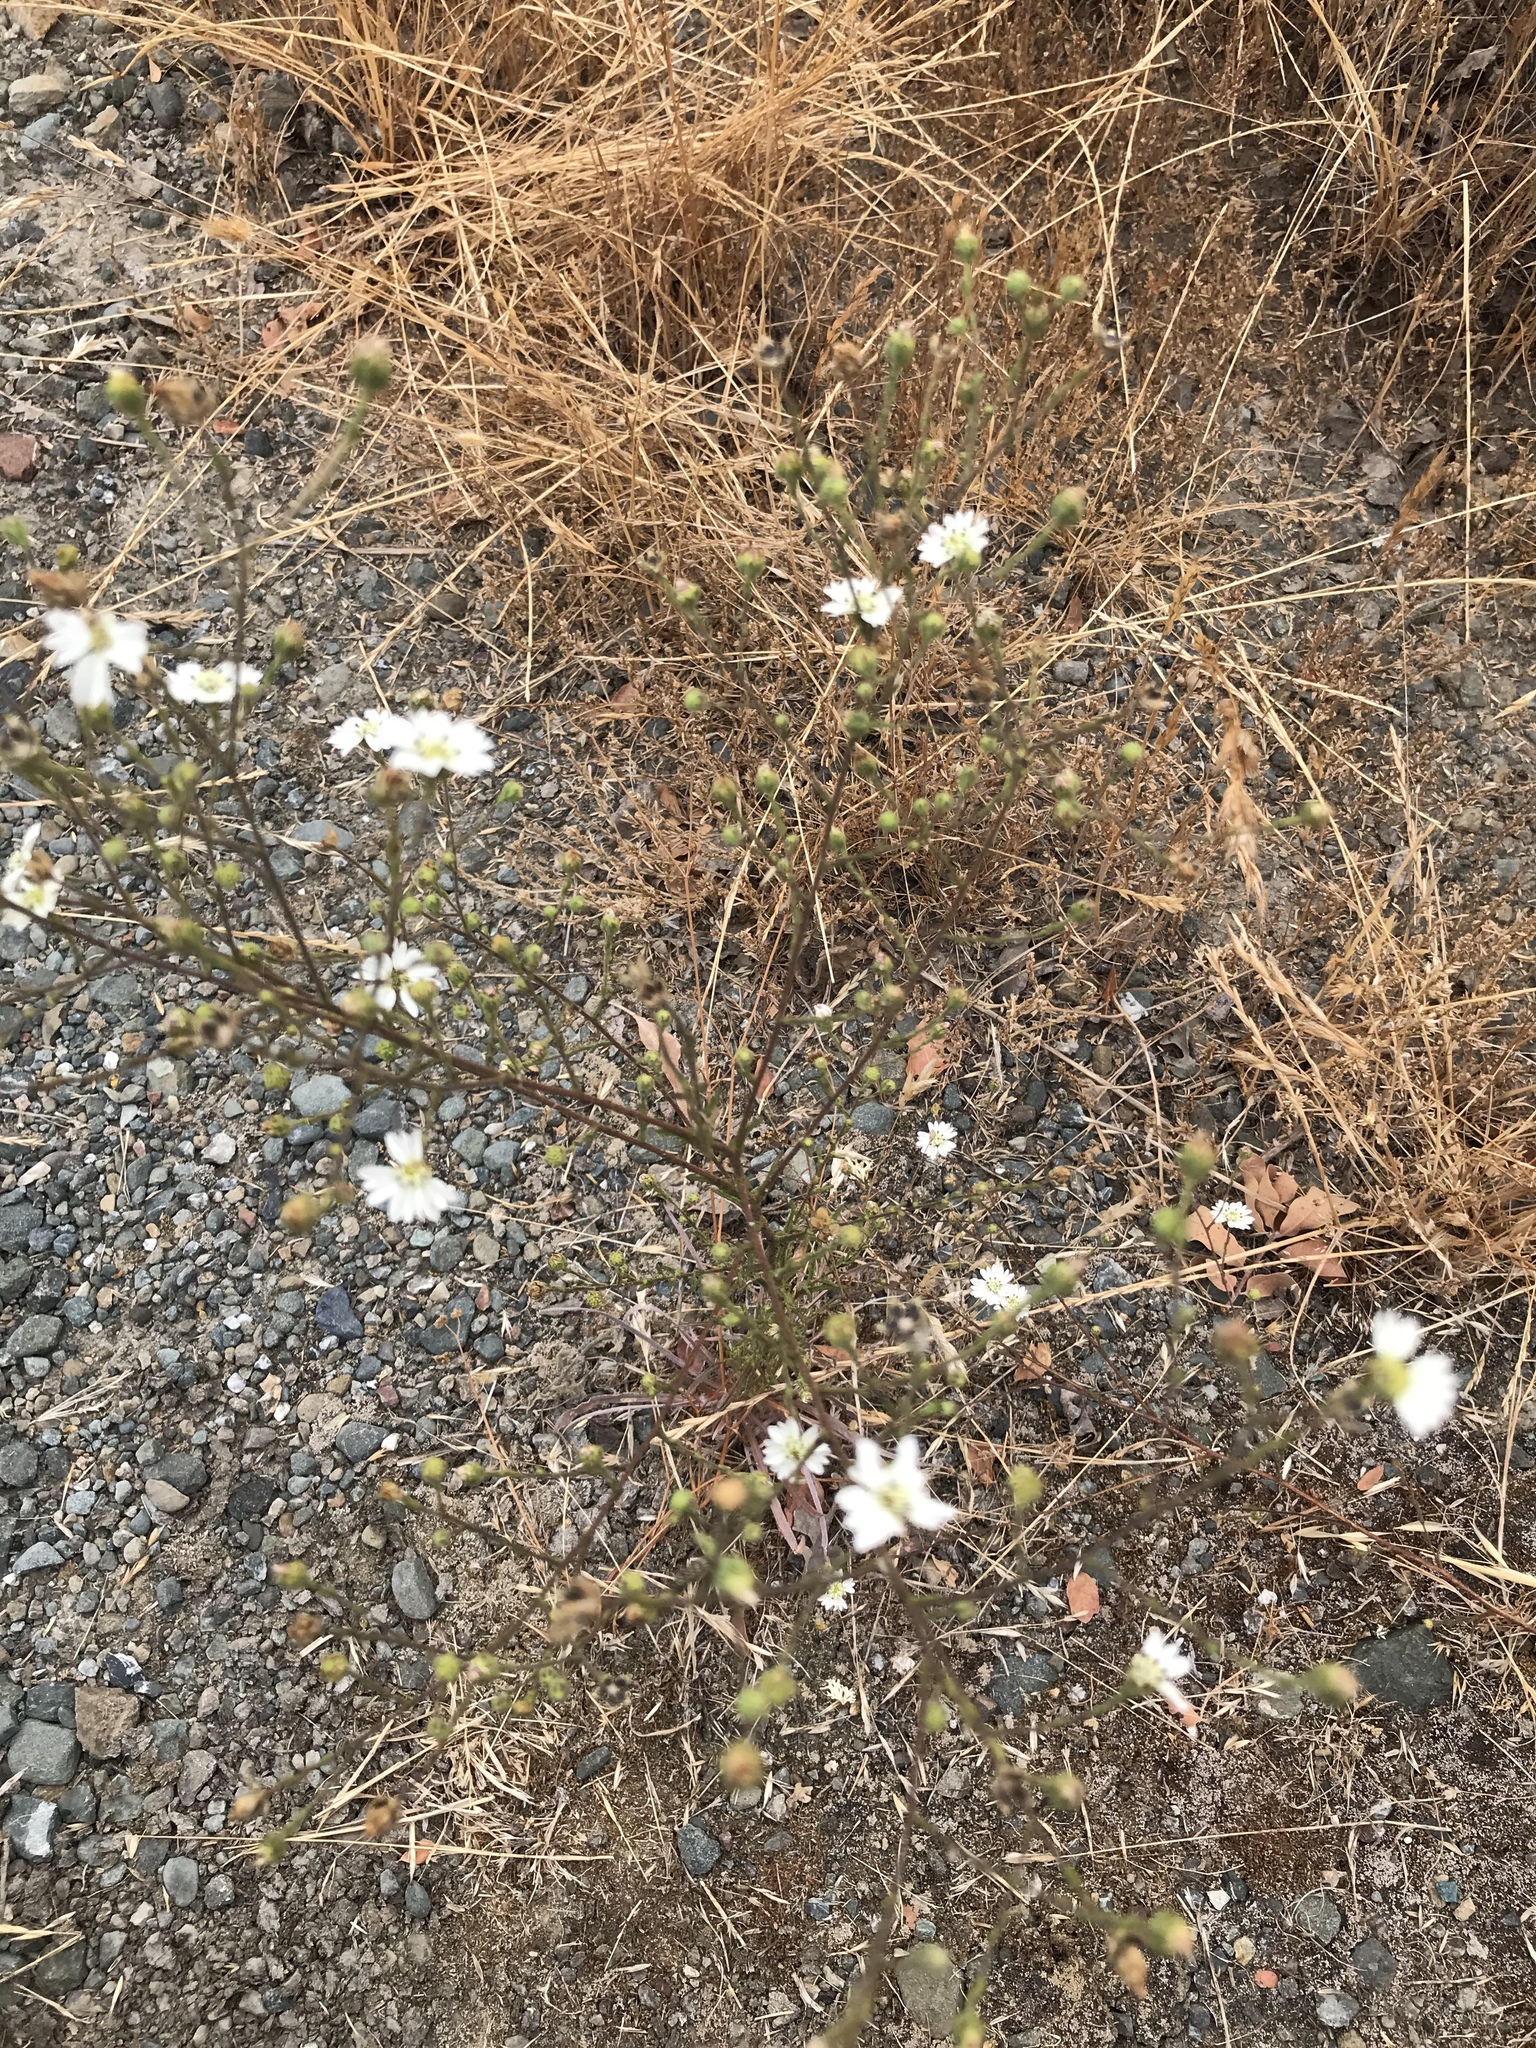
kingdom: Plantae
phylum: Tracheophyta
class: Magnoliopsida
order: Asterales
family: Asteraceae
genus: Hemizonia
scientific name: Hemizonia congesta
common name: Hayfield tarweed
